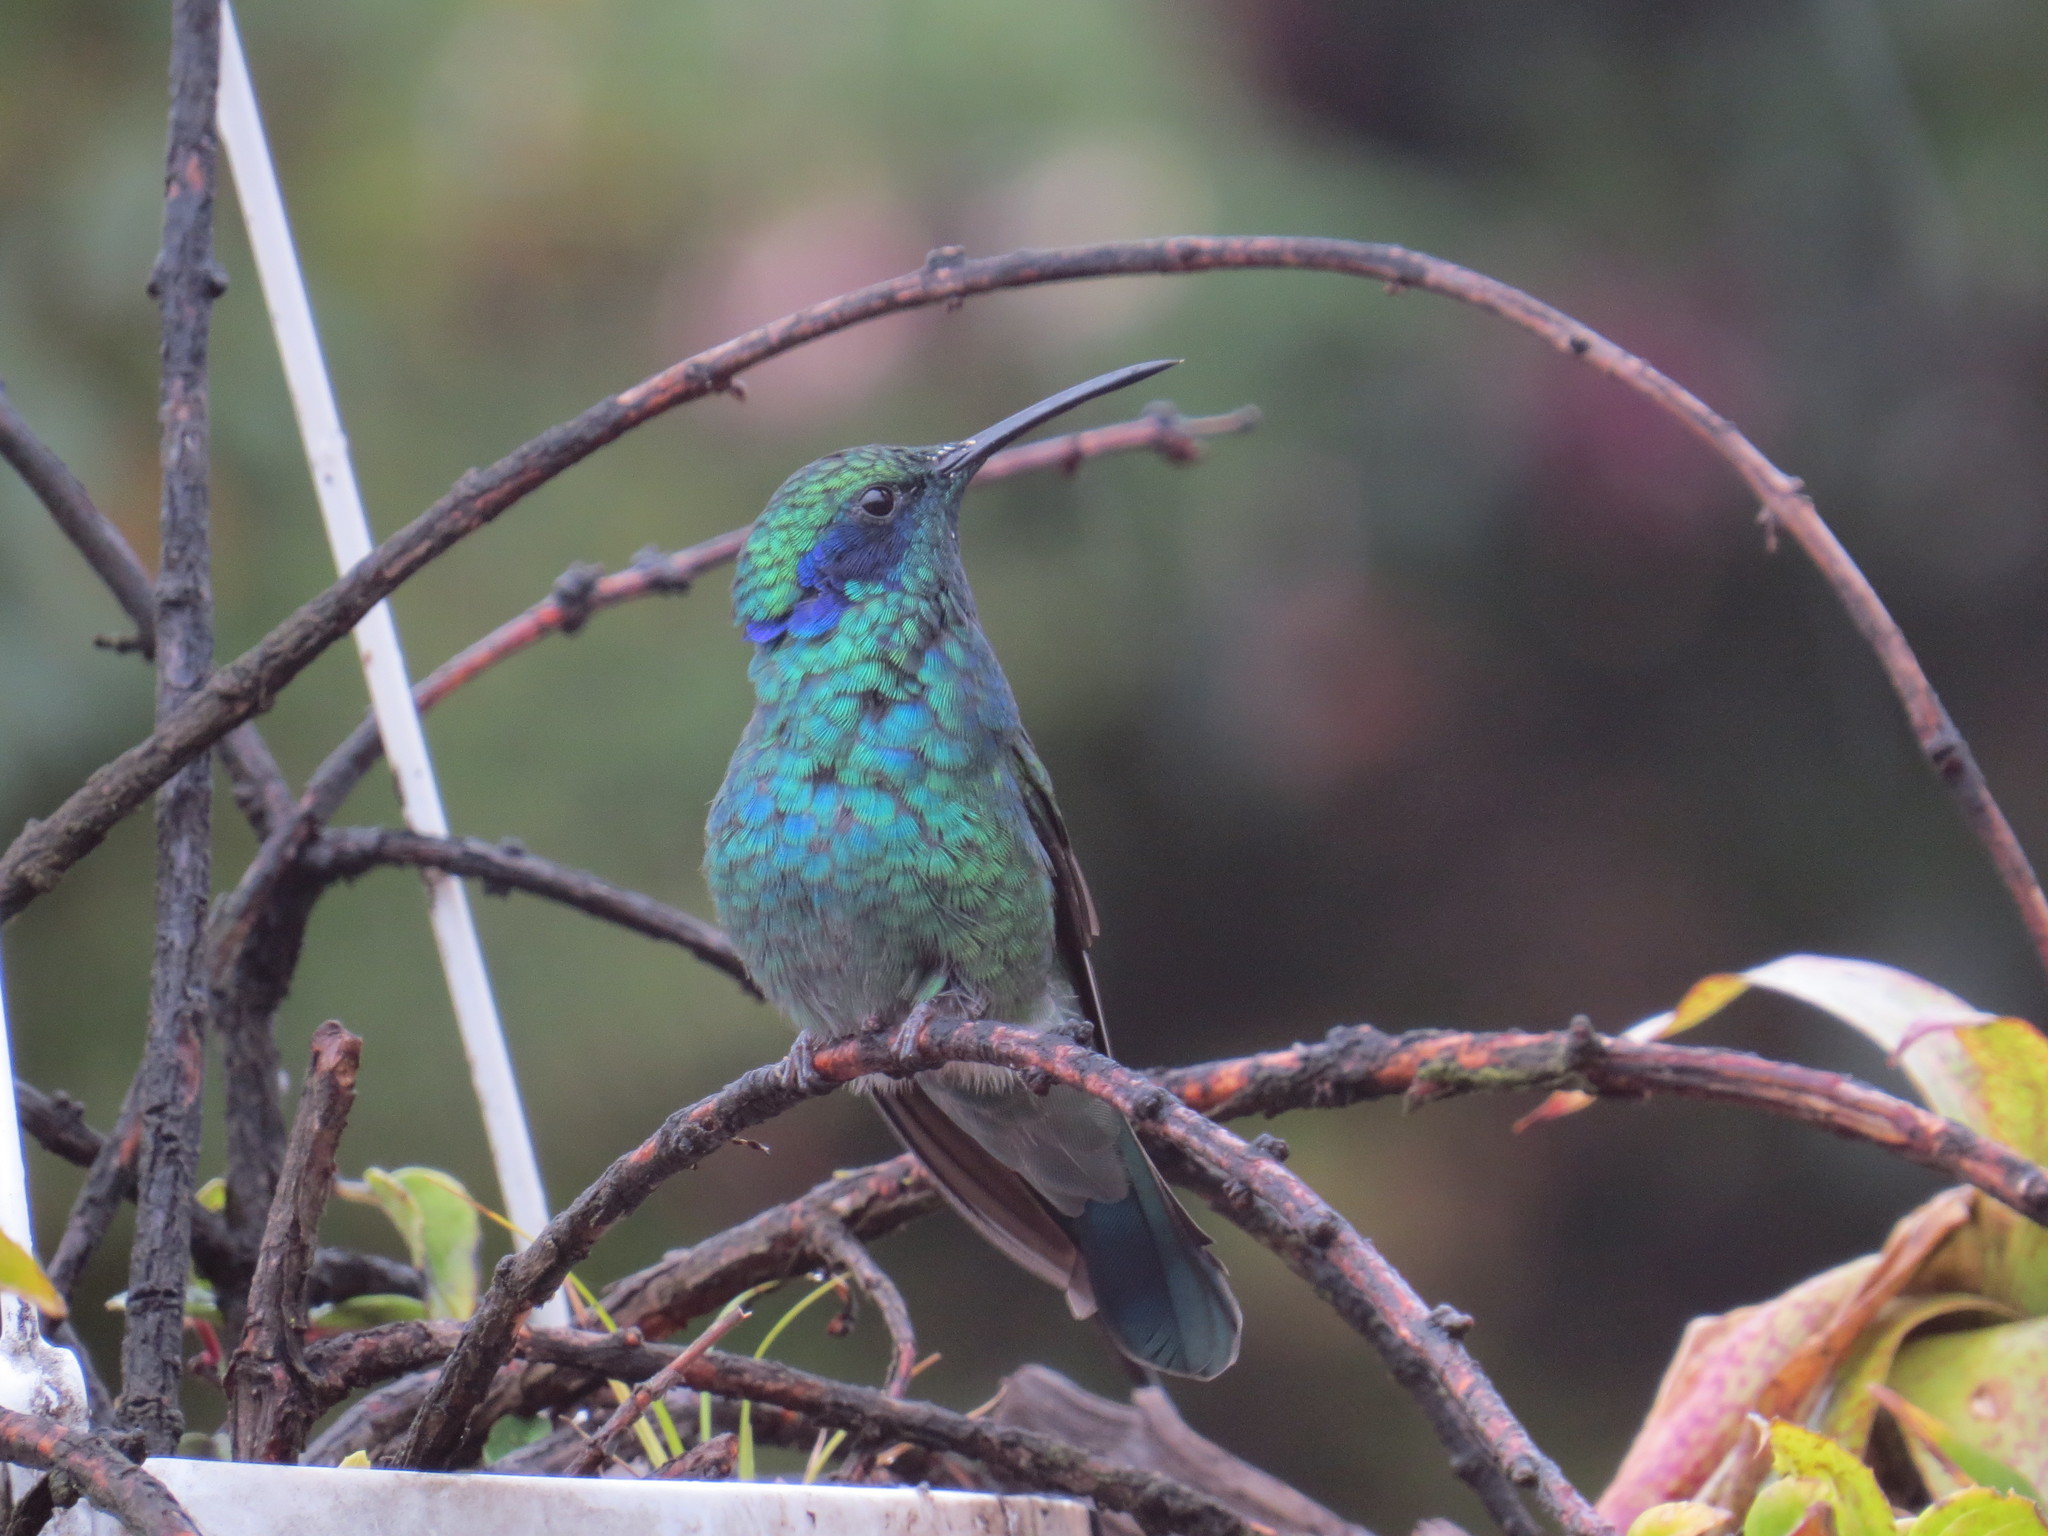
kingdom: Animalia
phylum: Chordata
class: Aves
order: Apodiformes
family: Trochilidae
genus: Colibri
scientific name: Colibri cyanotus
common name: Lesser violetear
